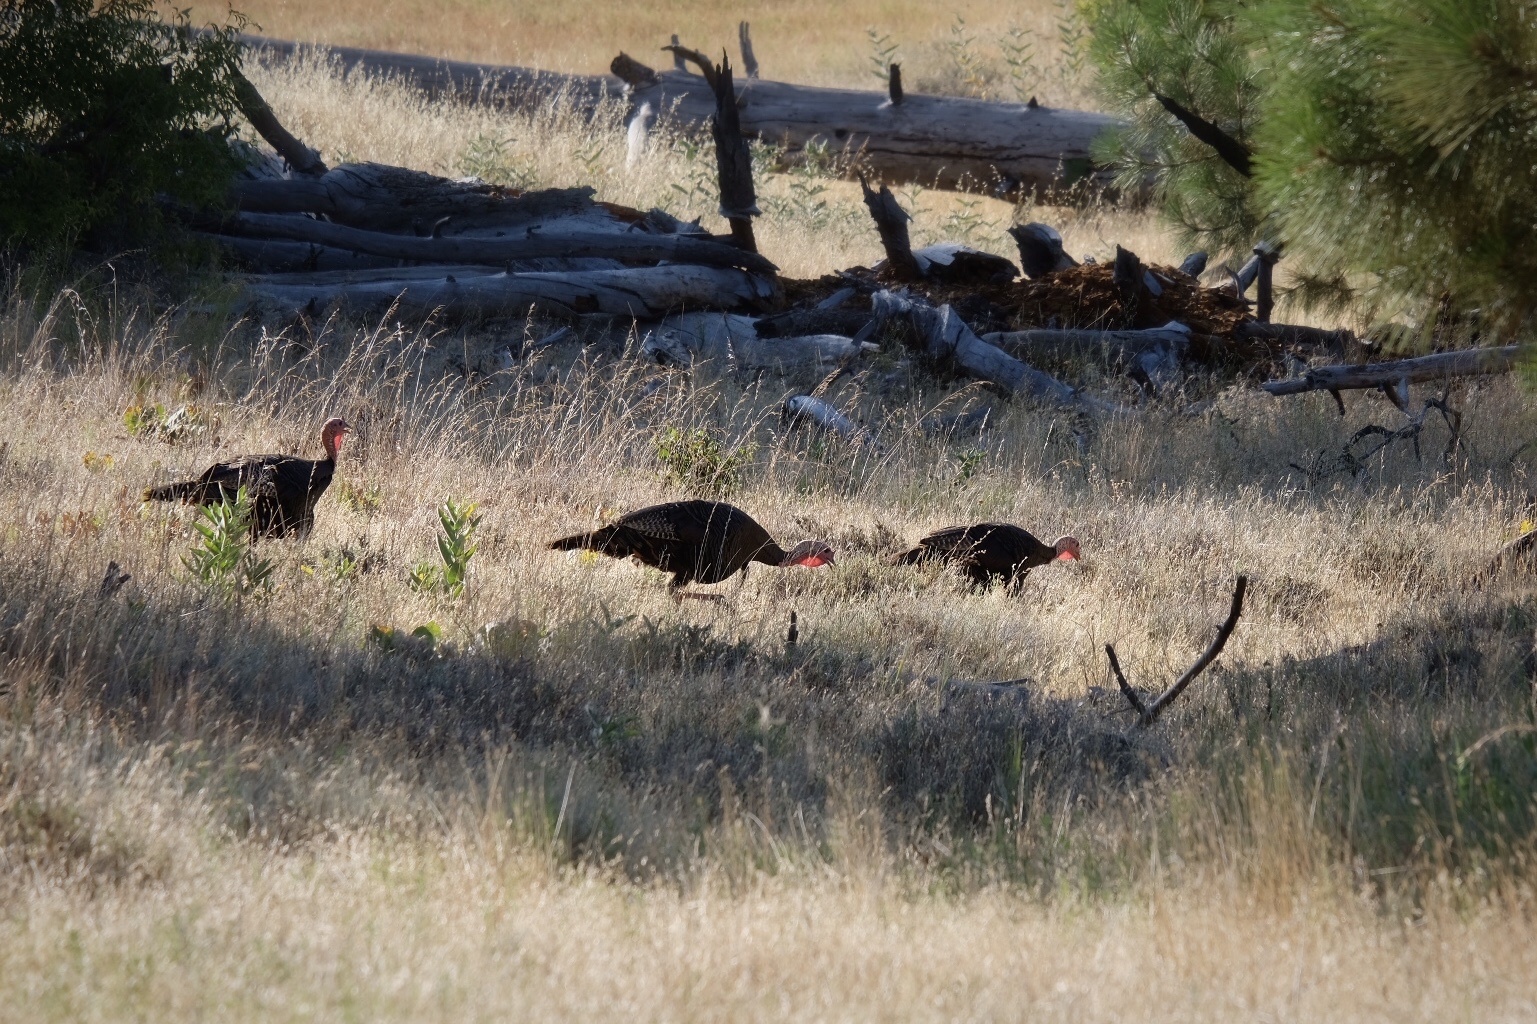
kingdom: Animalia
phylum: Chordata
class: Aves
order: Galliformes
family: Phasianidae
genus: Meleagris
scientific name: Meleagris gallopavo
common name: Wild turkey
